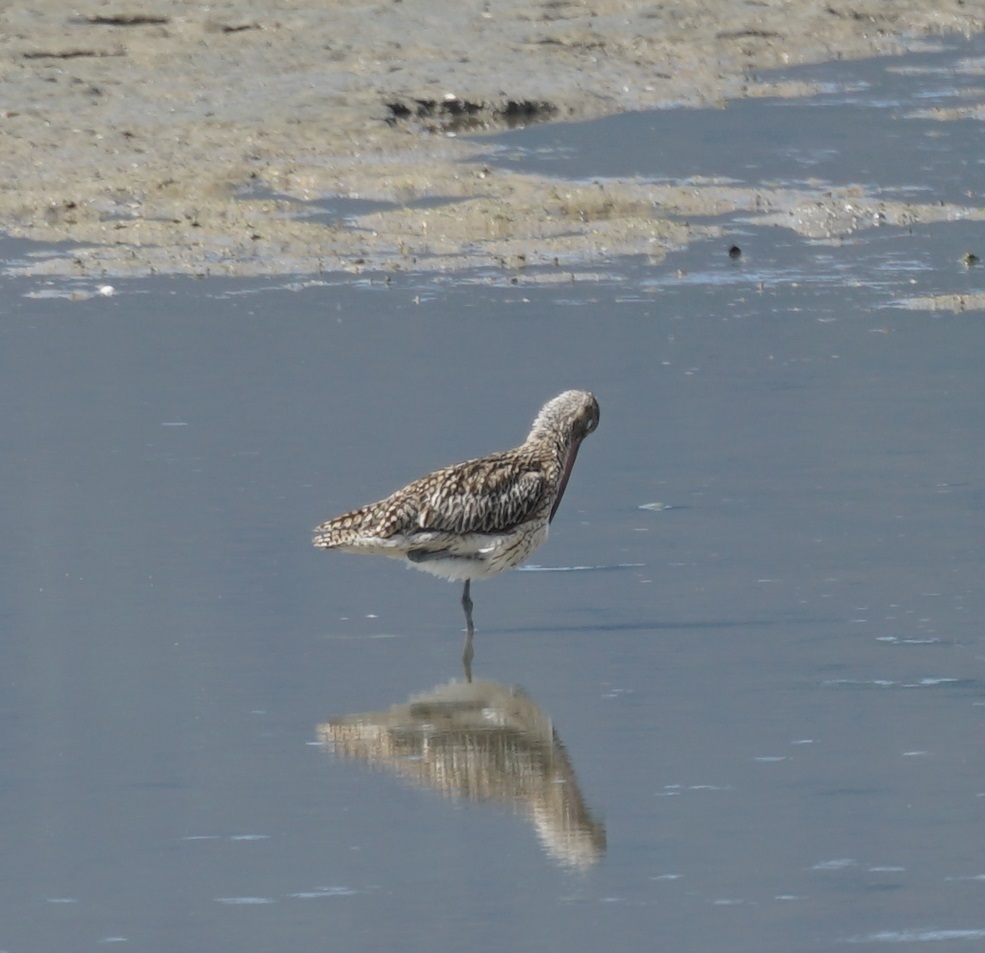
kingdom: Animalia
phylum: Chordata
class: Aves
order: Charadriiformes
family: Scolopacidae
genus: Numenius
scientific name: Numenius madagascariensis
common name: Far eastern curlew
